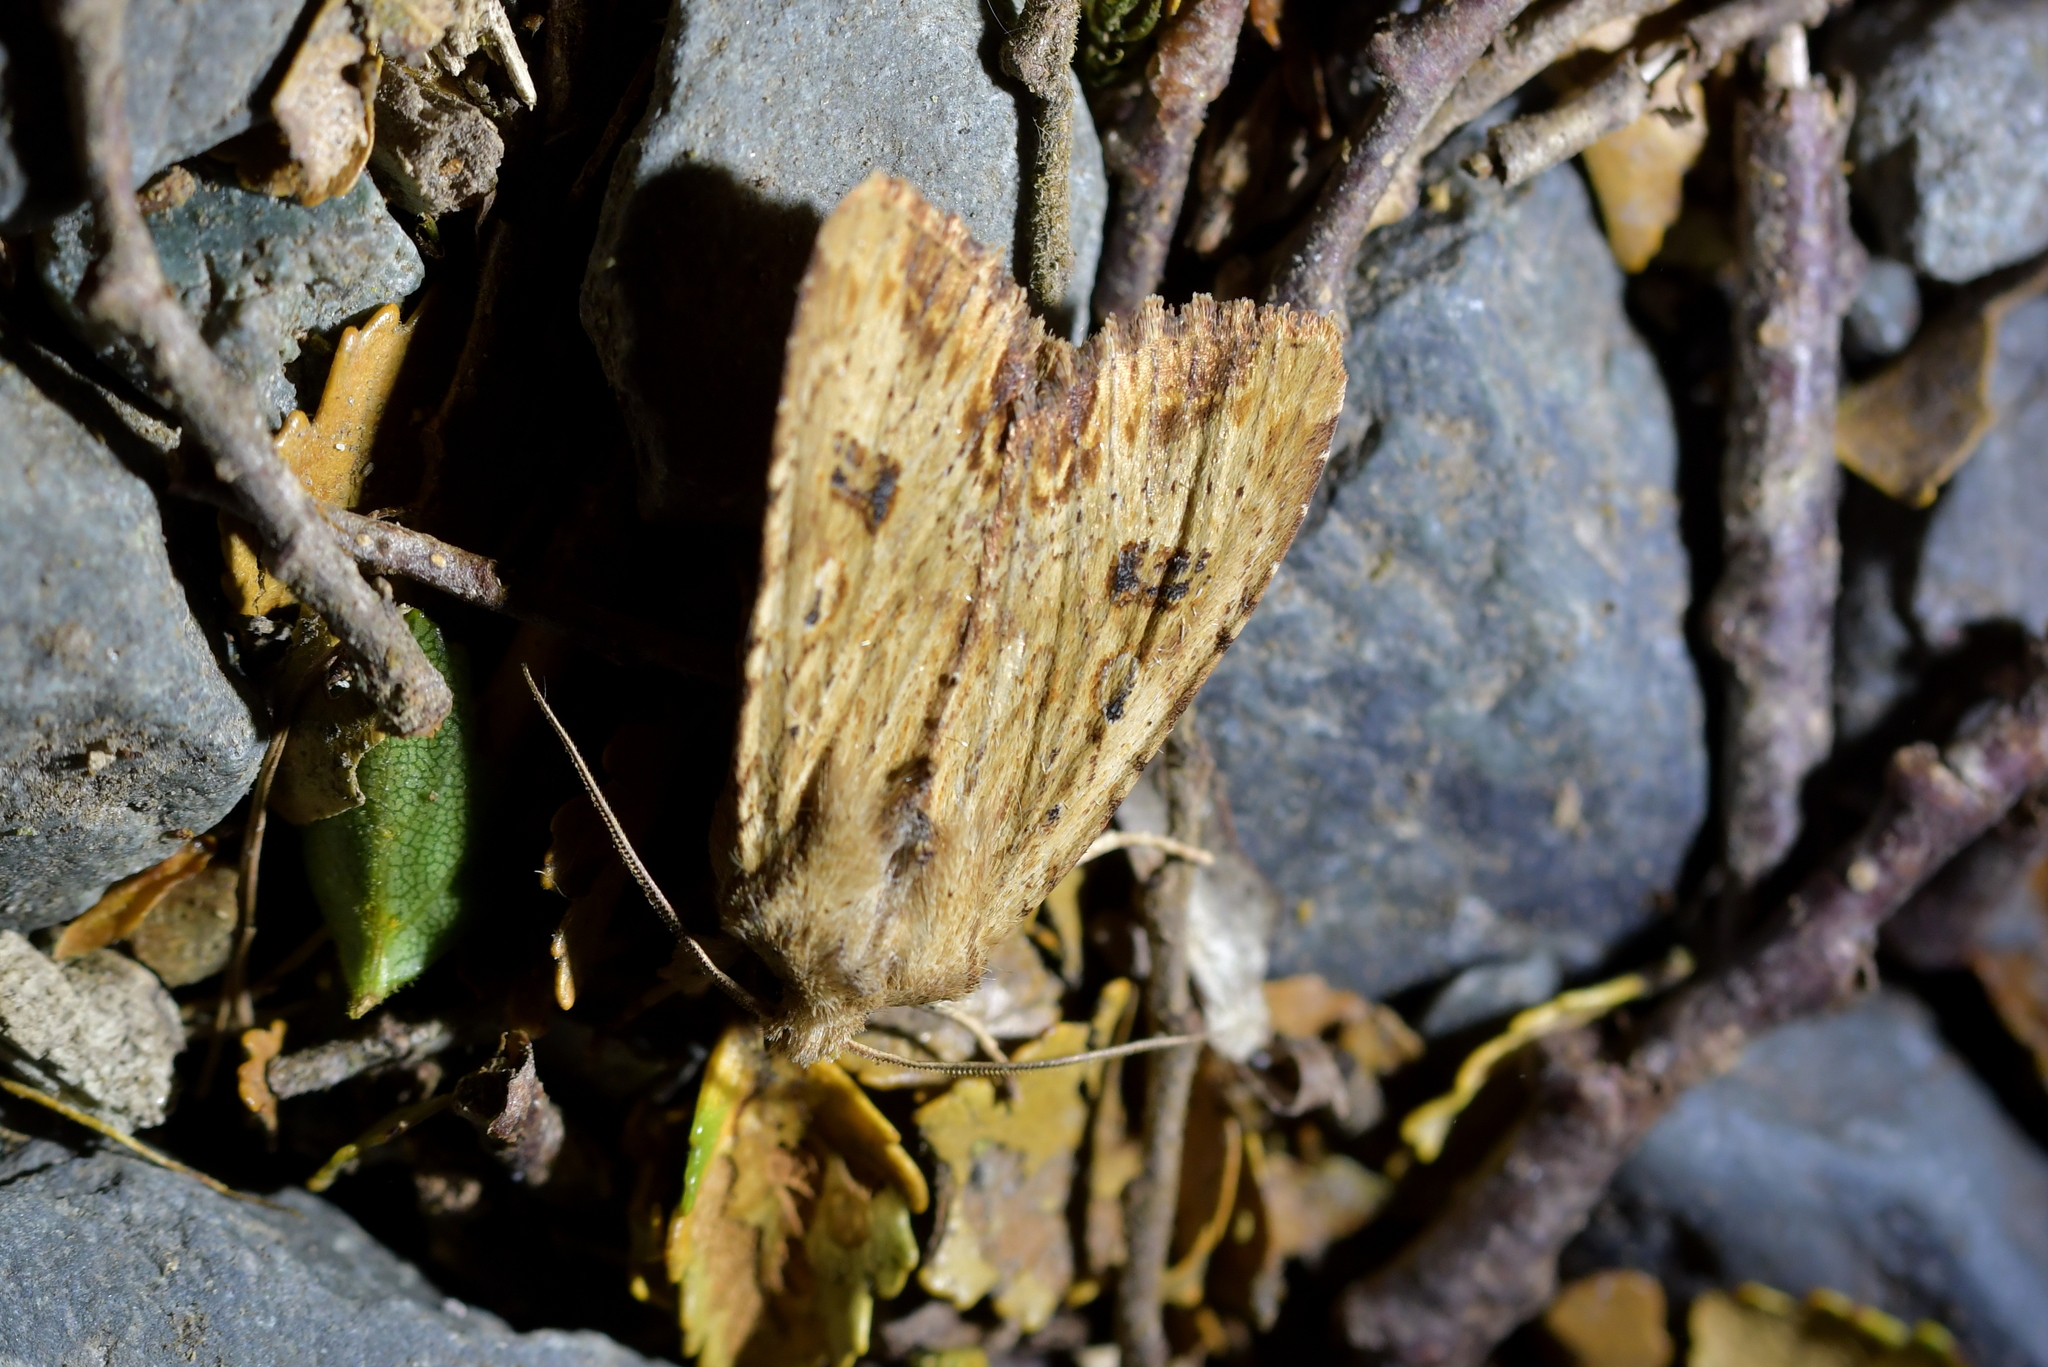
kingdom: Animalia
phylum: Arthropoda
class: Insecta
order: Lepidoptera
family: Noctuidae
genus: Ichneutica
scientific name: Ichneutica
